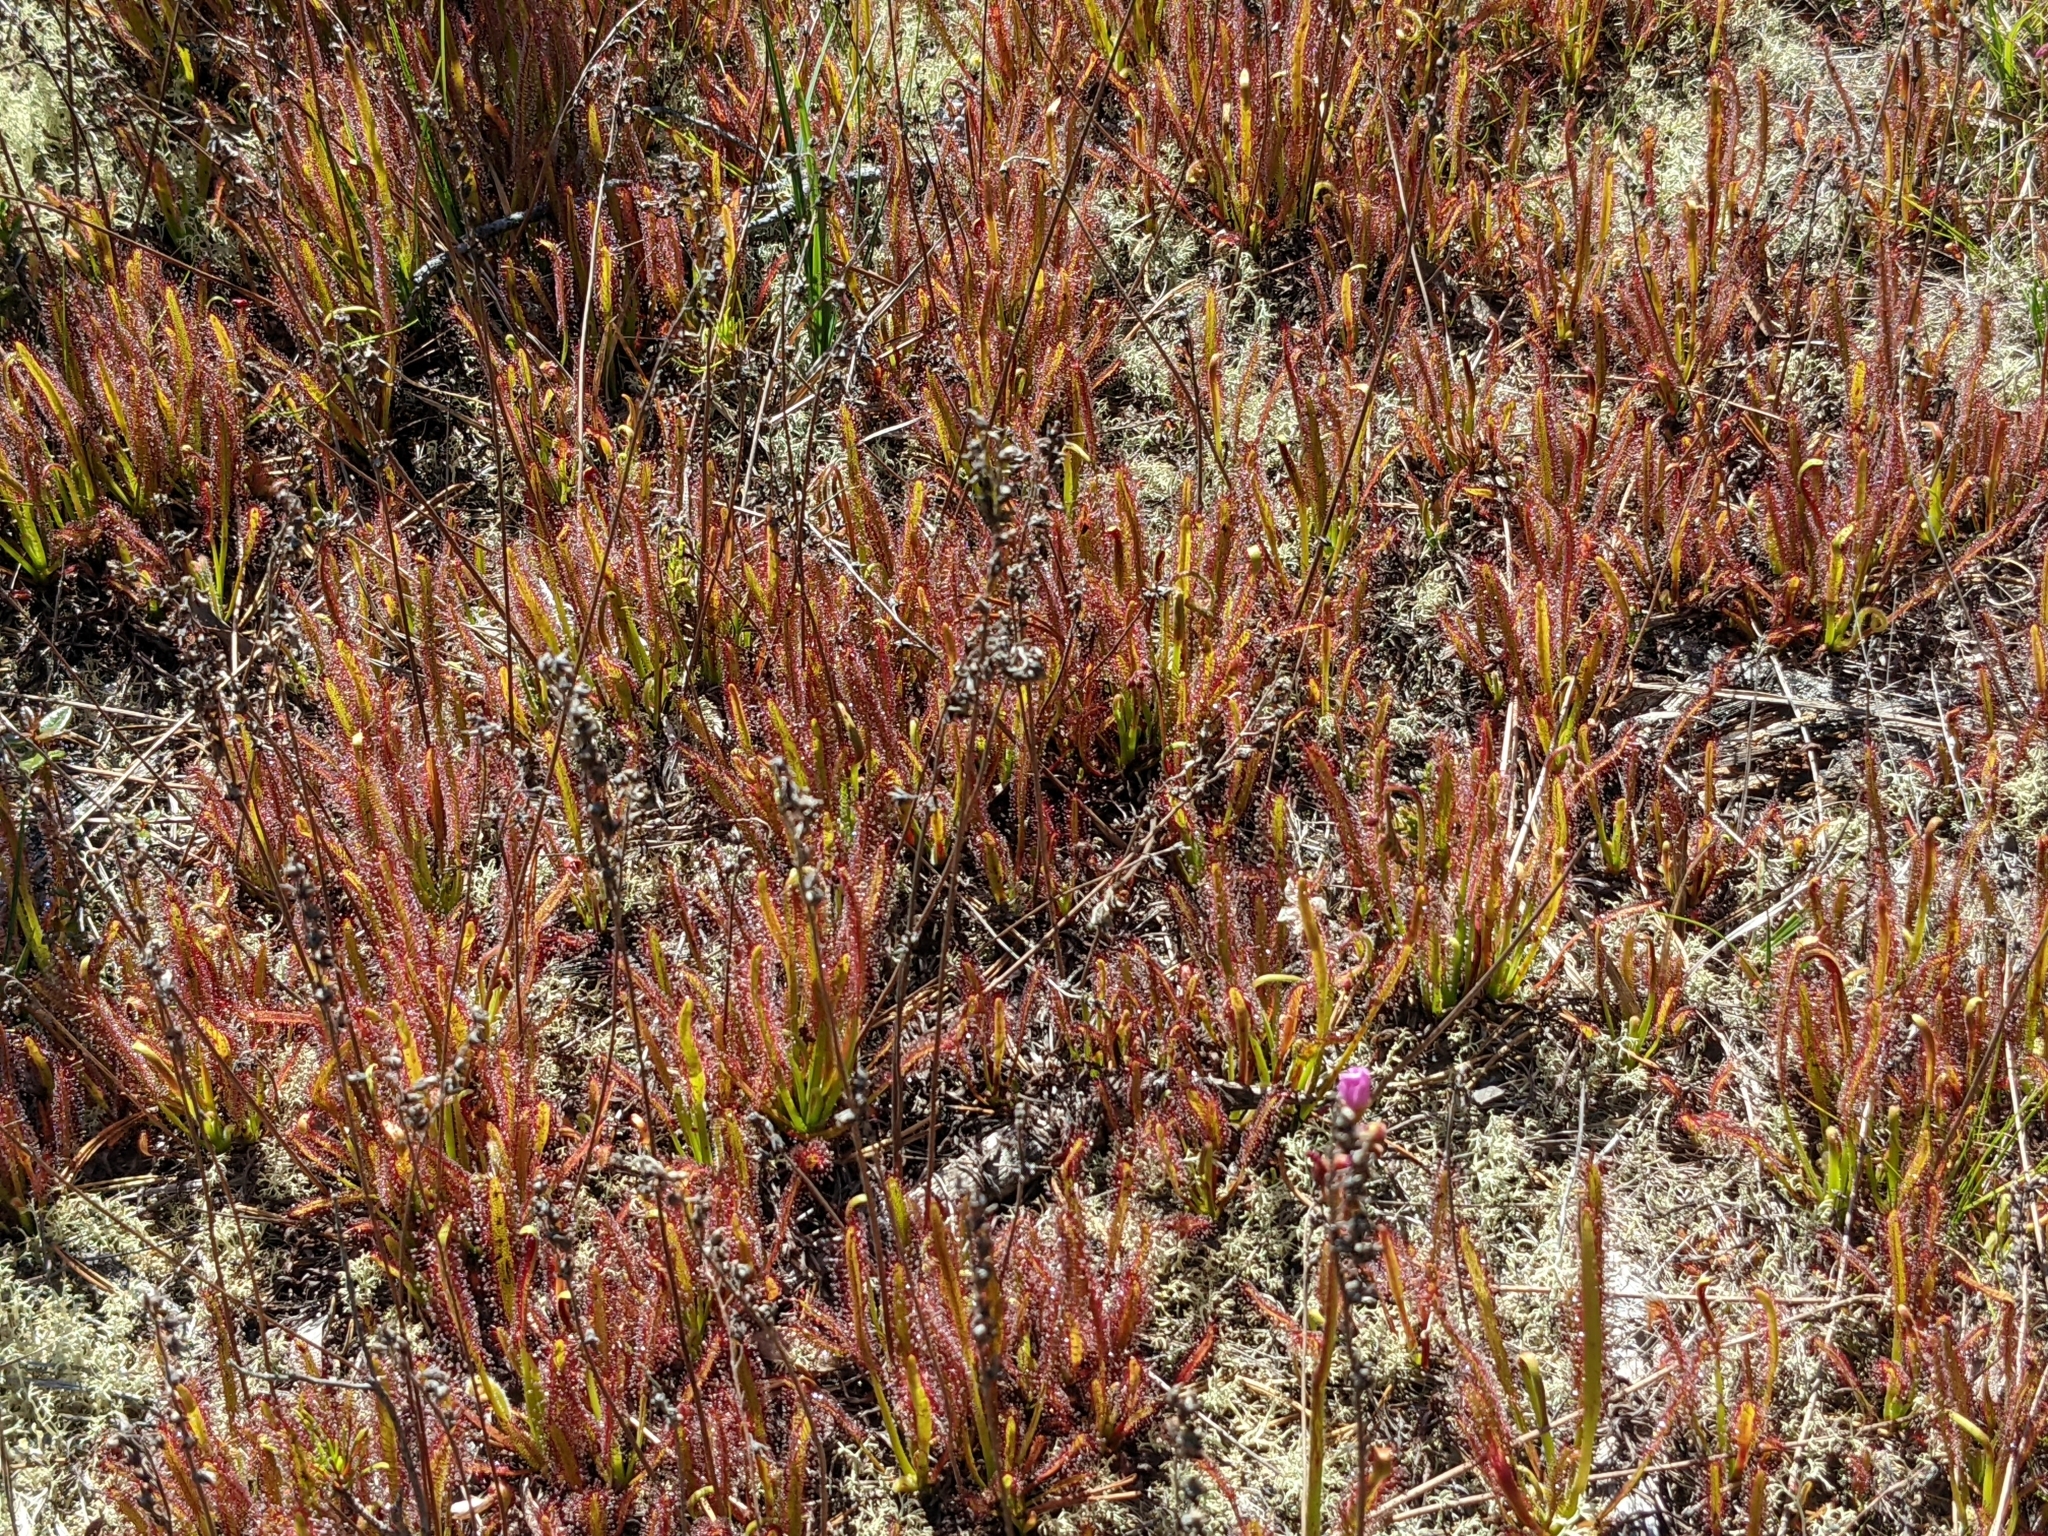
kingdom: Plantae
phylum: Tracheophyta
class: Magnoliopsida
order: Caryophyllales
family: Droseraceae
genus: Drosera
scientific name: Drosera capensis
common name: Cape sundew
